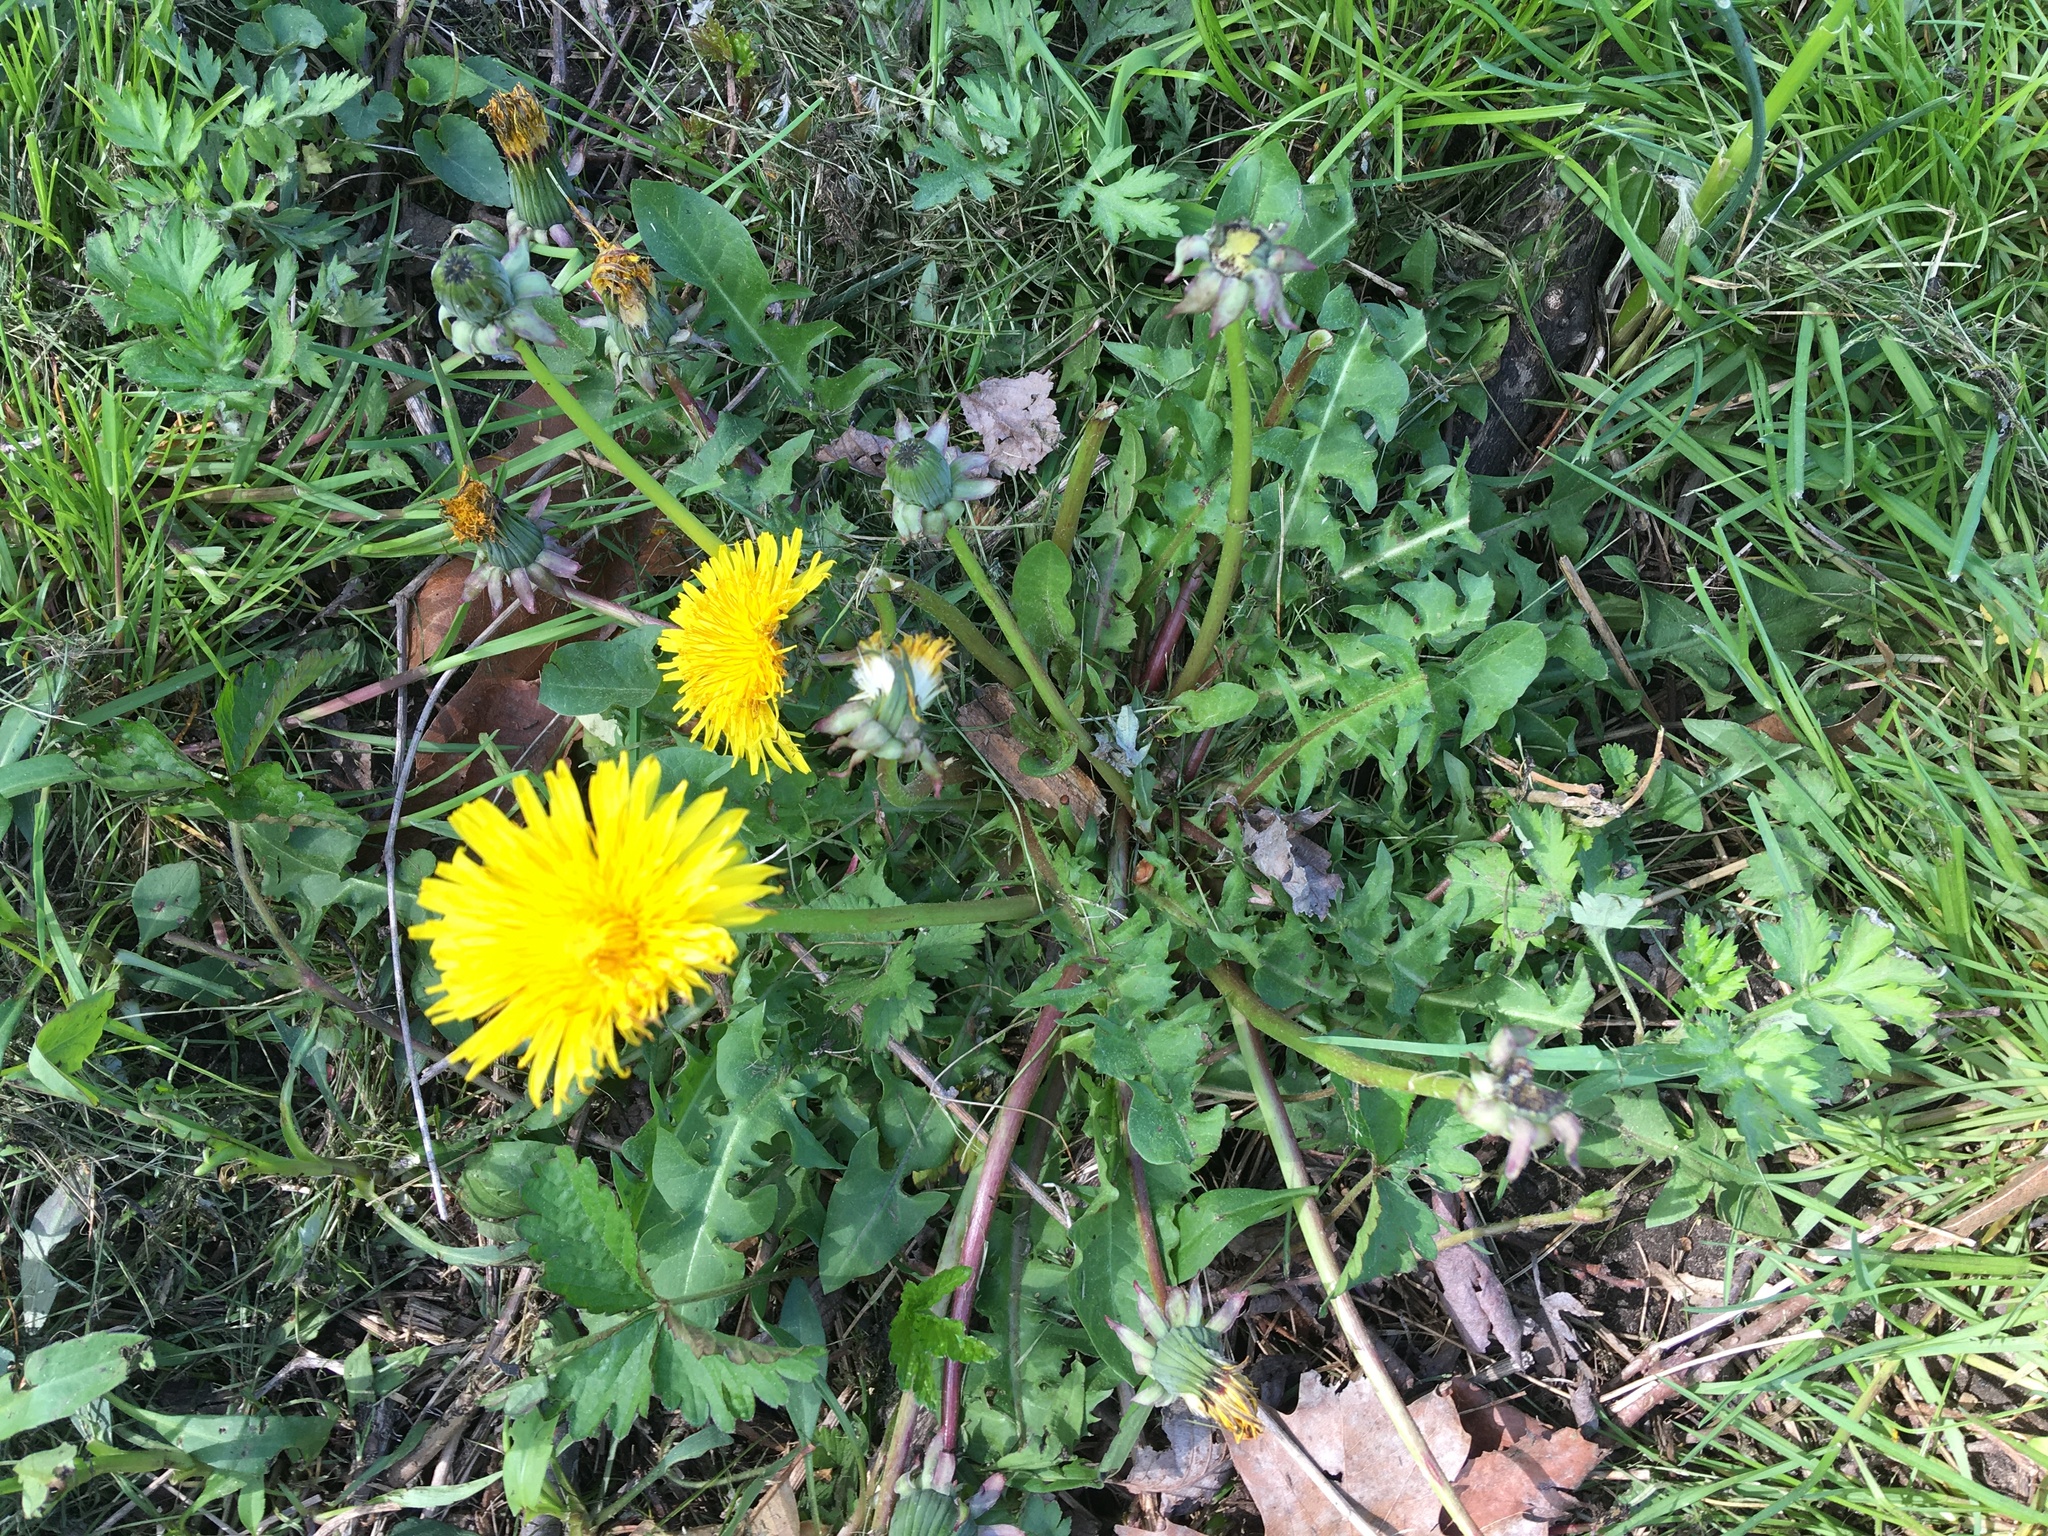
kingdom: Plantae
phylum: Tracheophyta
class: Magnoliopsida
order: Asterales
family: Asteraceae
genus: Taraxacum
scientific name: Taraxacum officinale
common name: Common dandelion
